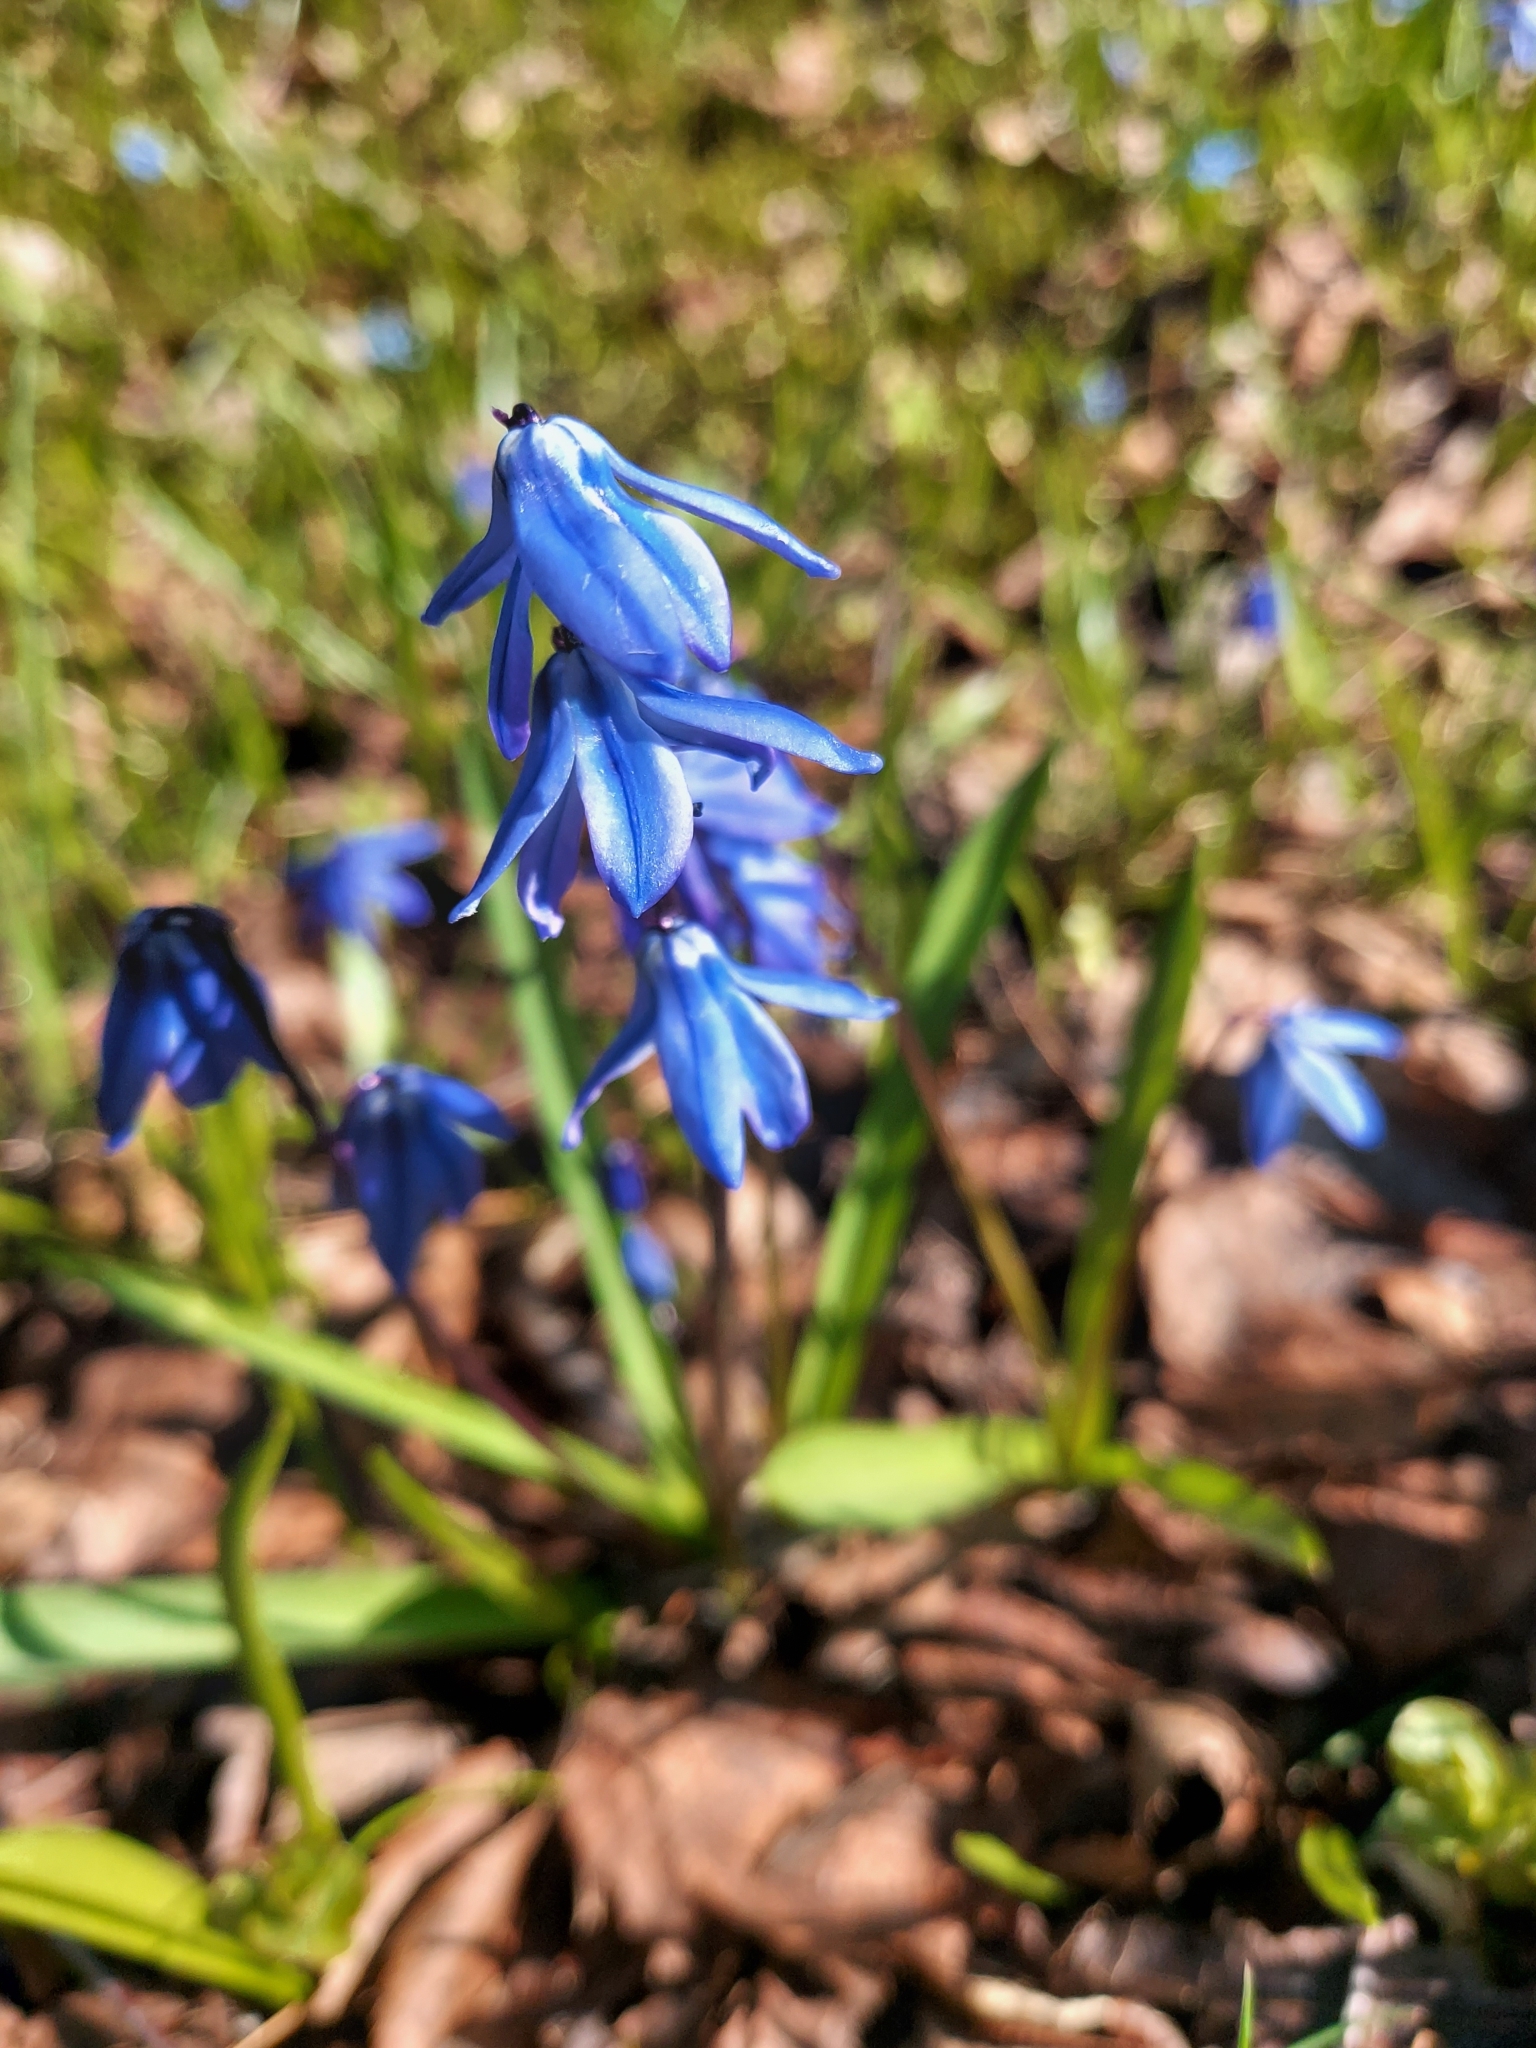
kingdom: Plantae
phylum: Tracheophyta
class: Liliopsida
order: Asparagales
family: Asparagaceae
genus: Scilla
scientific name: Scilla siberica
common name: Siberian squill
